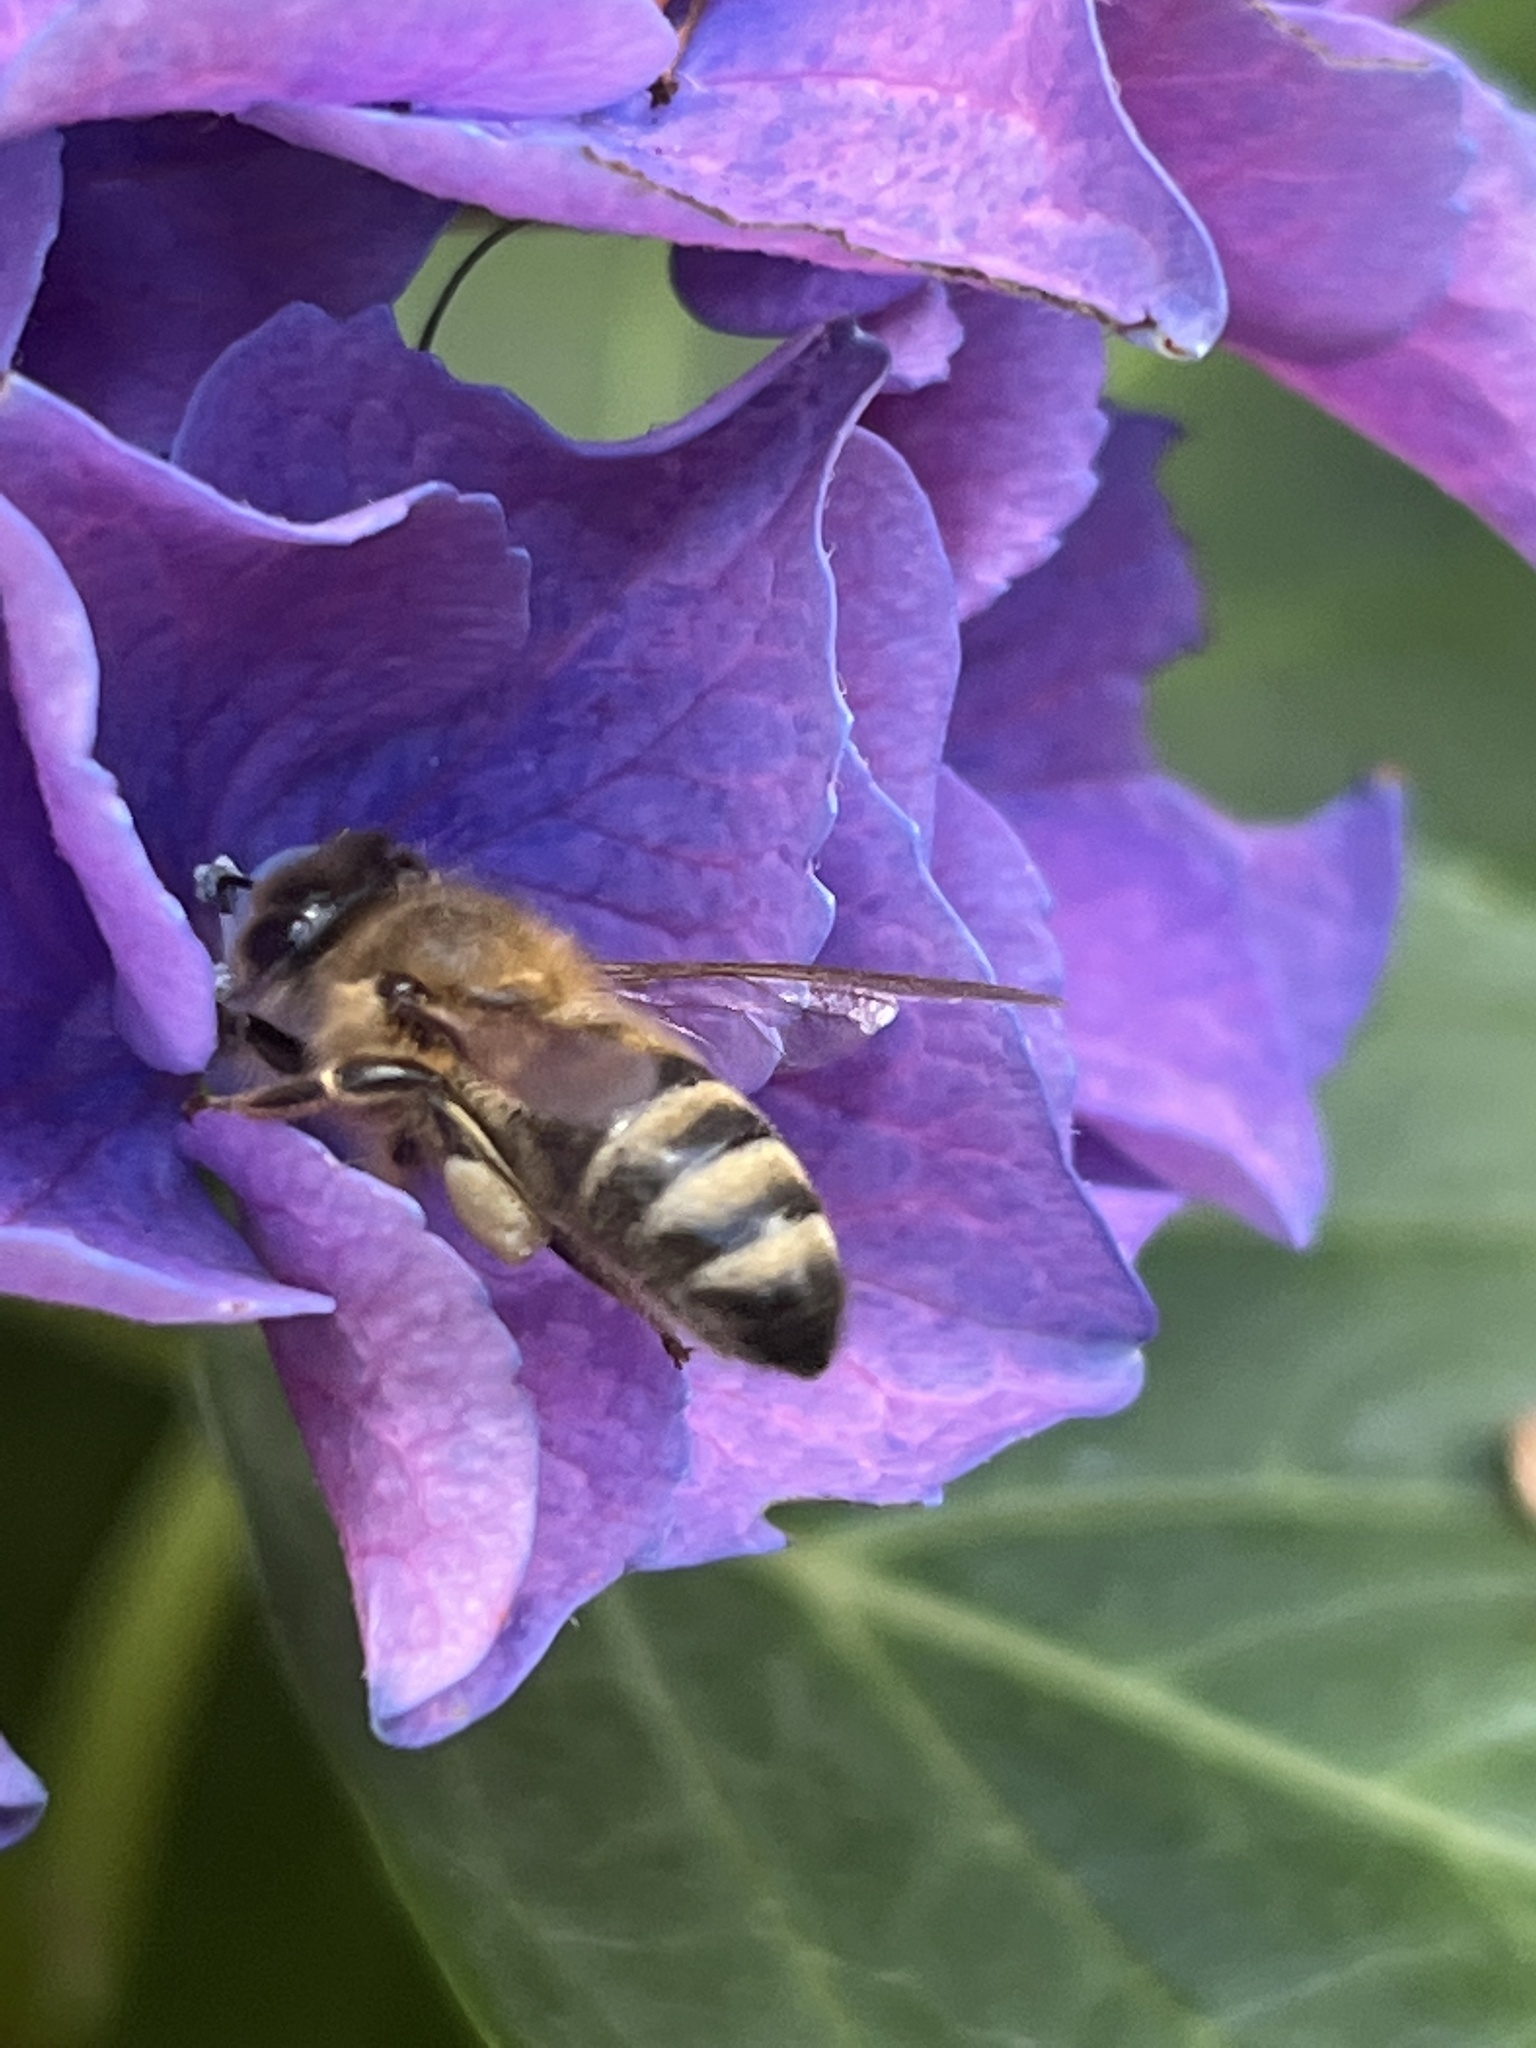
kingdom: Animalia
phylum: Arthropoda
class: Insecta
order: Hymenoptera
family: Apidae
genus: Apis
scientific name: Apis mellifera
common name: Honey bee
